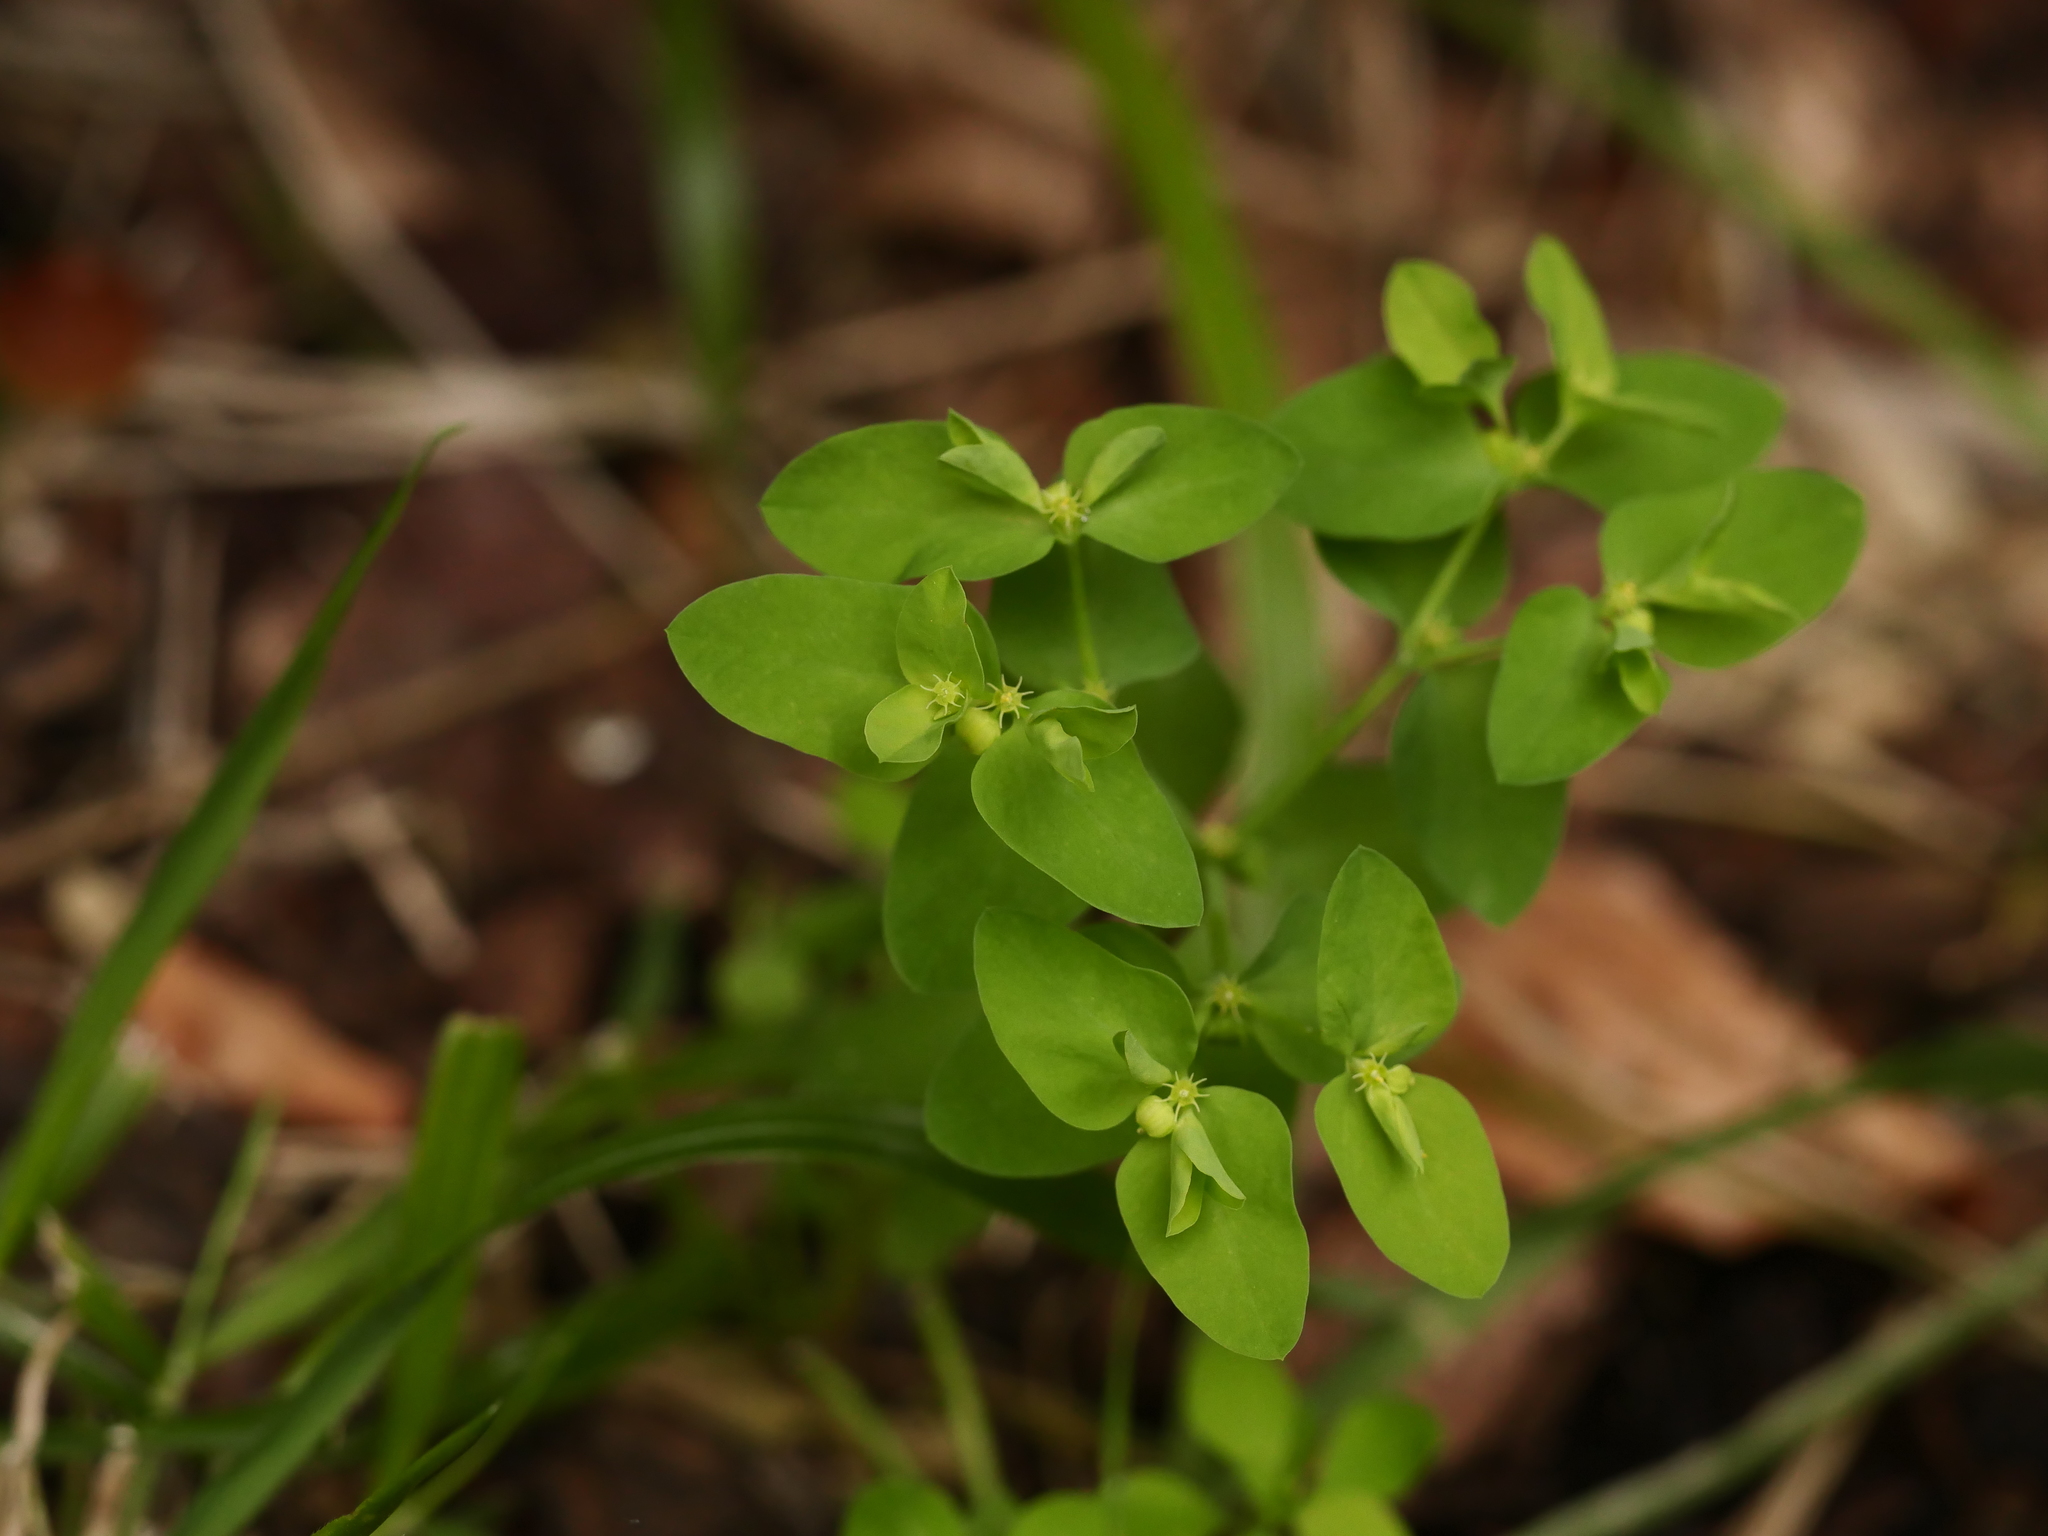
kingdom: Plantae
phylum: Tracheophyta
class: Magnoliopsida
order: Malpighiales
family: Euphorbiaceae
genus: Euphorbia
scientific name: Euphorbia peplus
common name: Petty spurge
